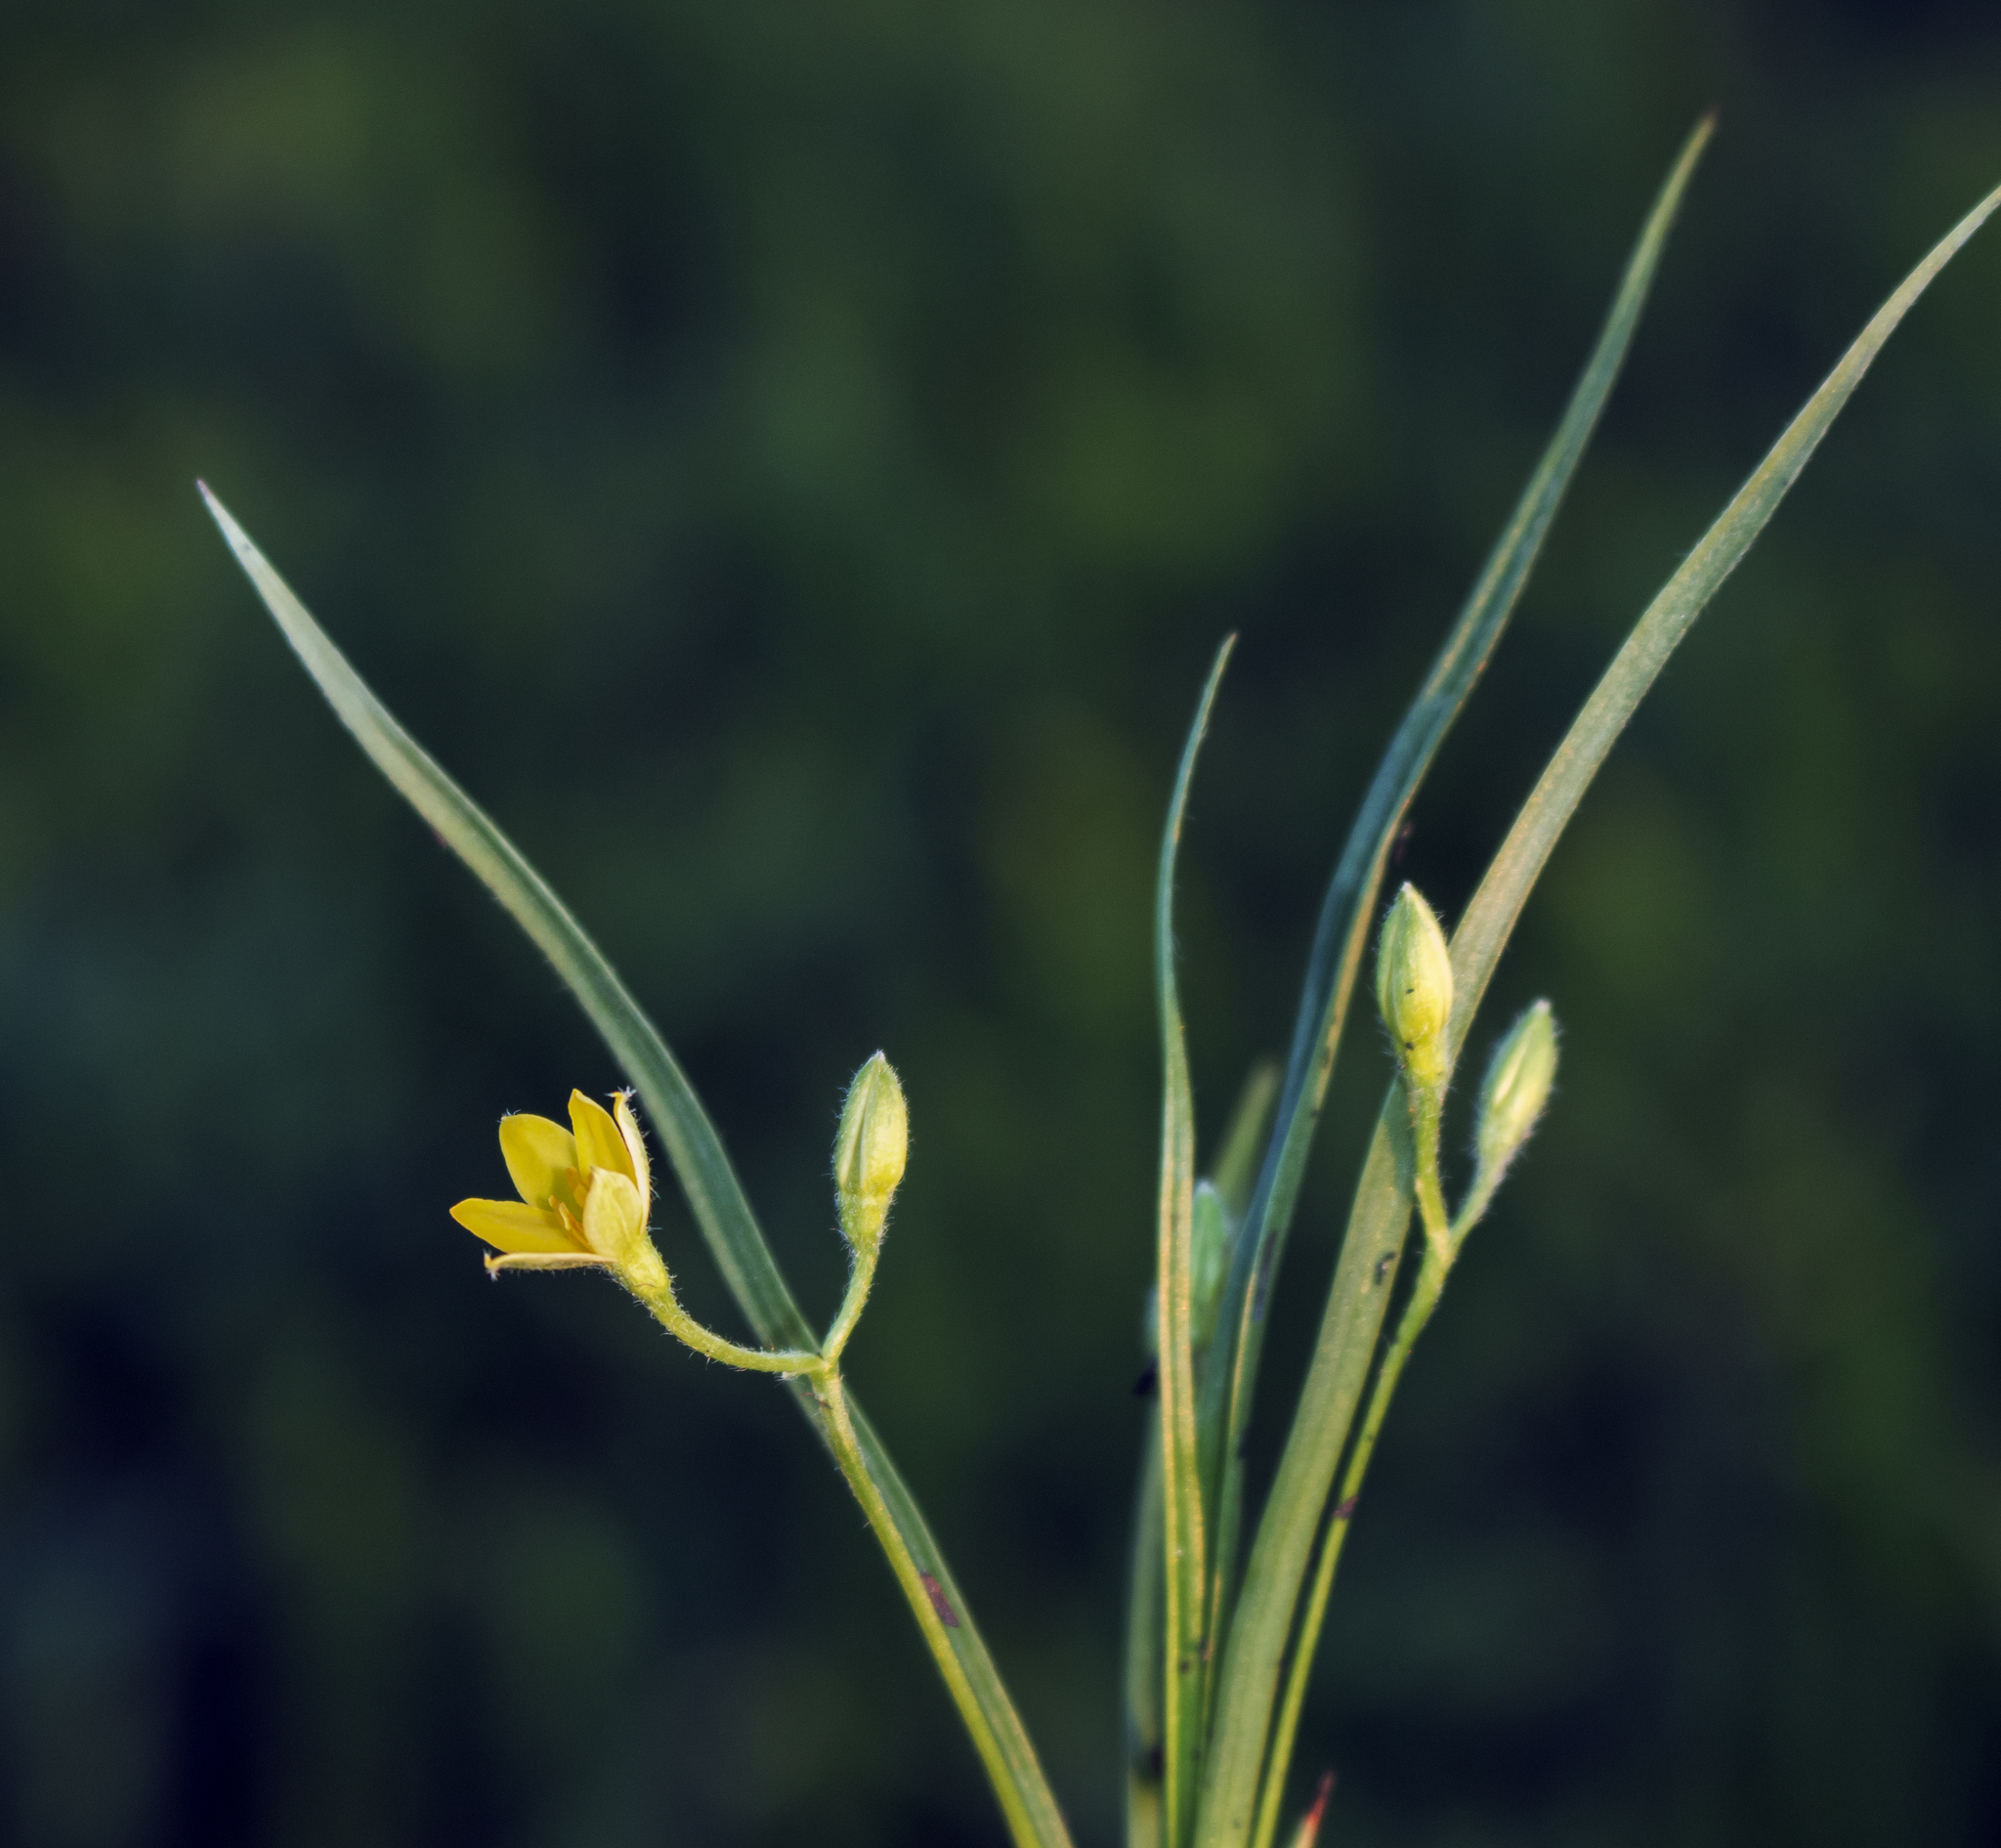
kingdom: Plantae
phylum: Tracheophyta
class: Liliopsida
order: Asparagales
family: Hypoxidaceae
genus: Hypoxis
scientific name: Hypoxis hirsuta
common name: Common goldstar
